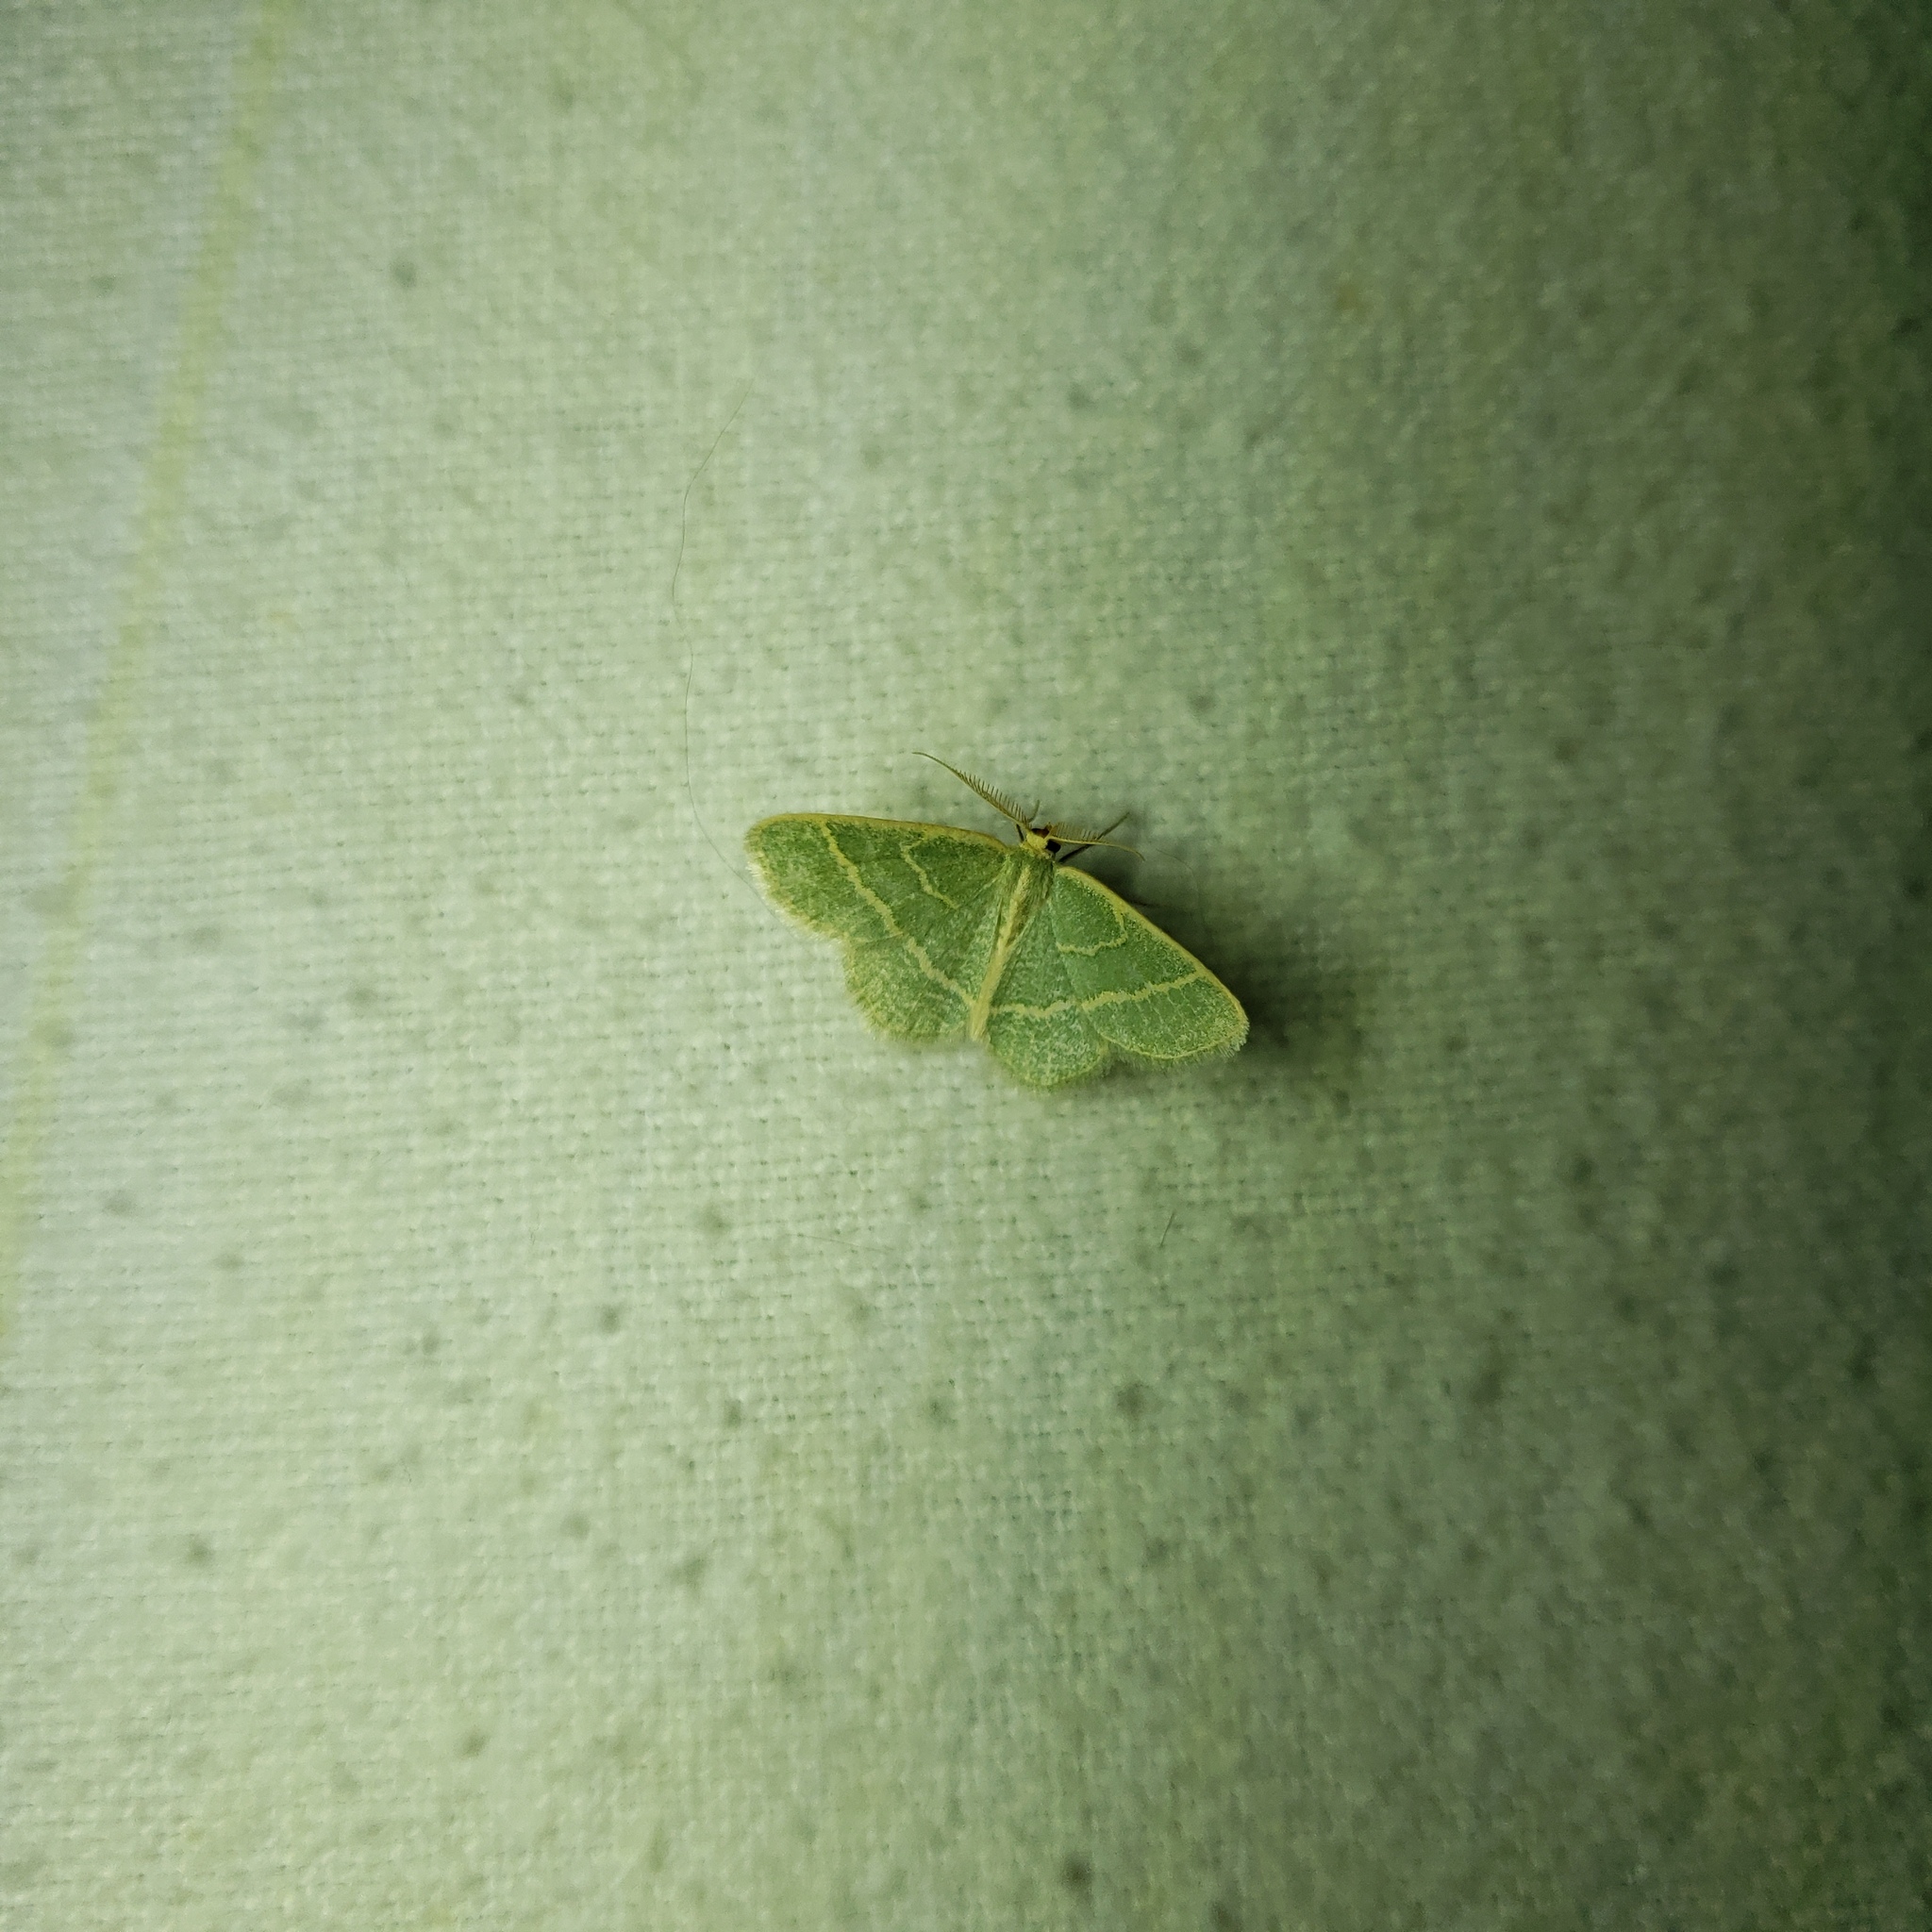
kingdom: Animalia
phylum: Arthropoda
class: Insecta
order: Lepidoptera
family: Geometridae
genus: Chlorochlamys
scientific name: Chlorochlamys chloroleucaria
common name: Blackberry looper
